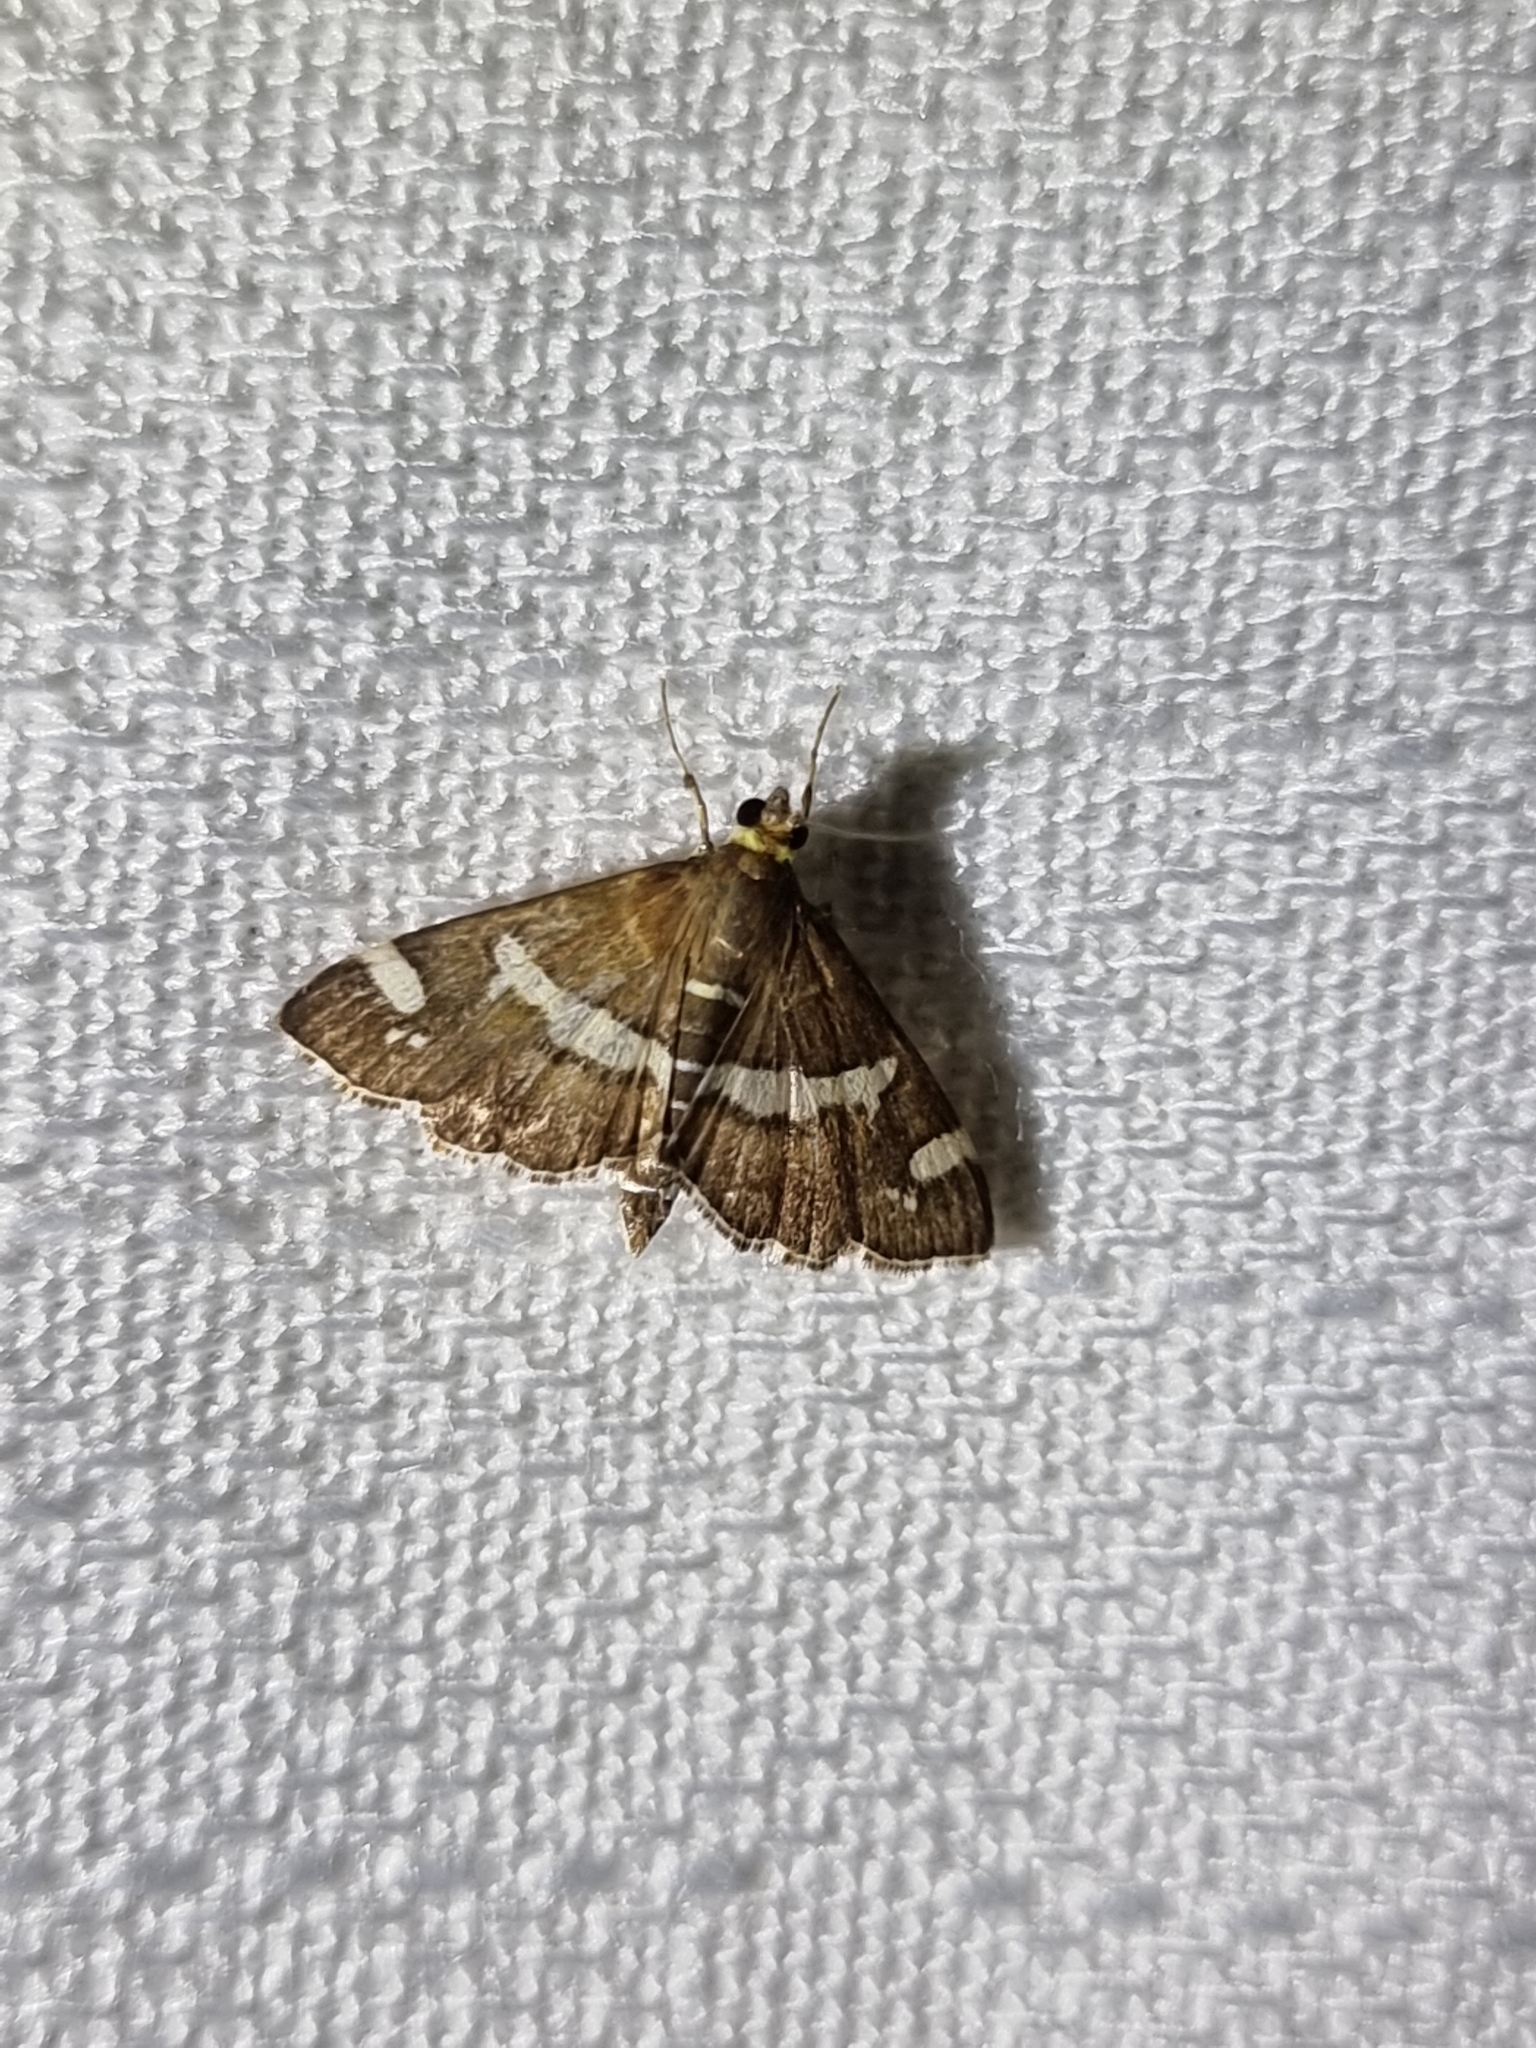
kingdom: Animalia
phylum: Arthropoda
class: Insecta
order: Lepidoptera
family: Crambidae
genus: Spoladea
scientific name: Spoladea recurvalis
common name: Beet webworm moth
